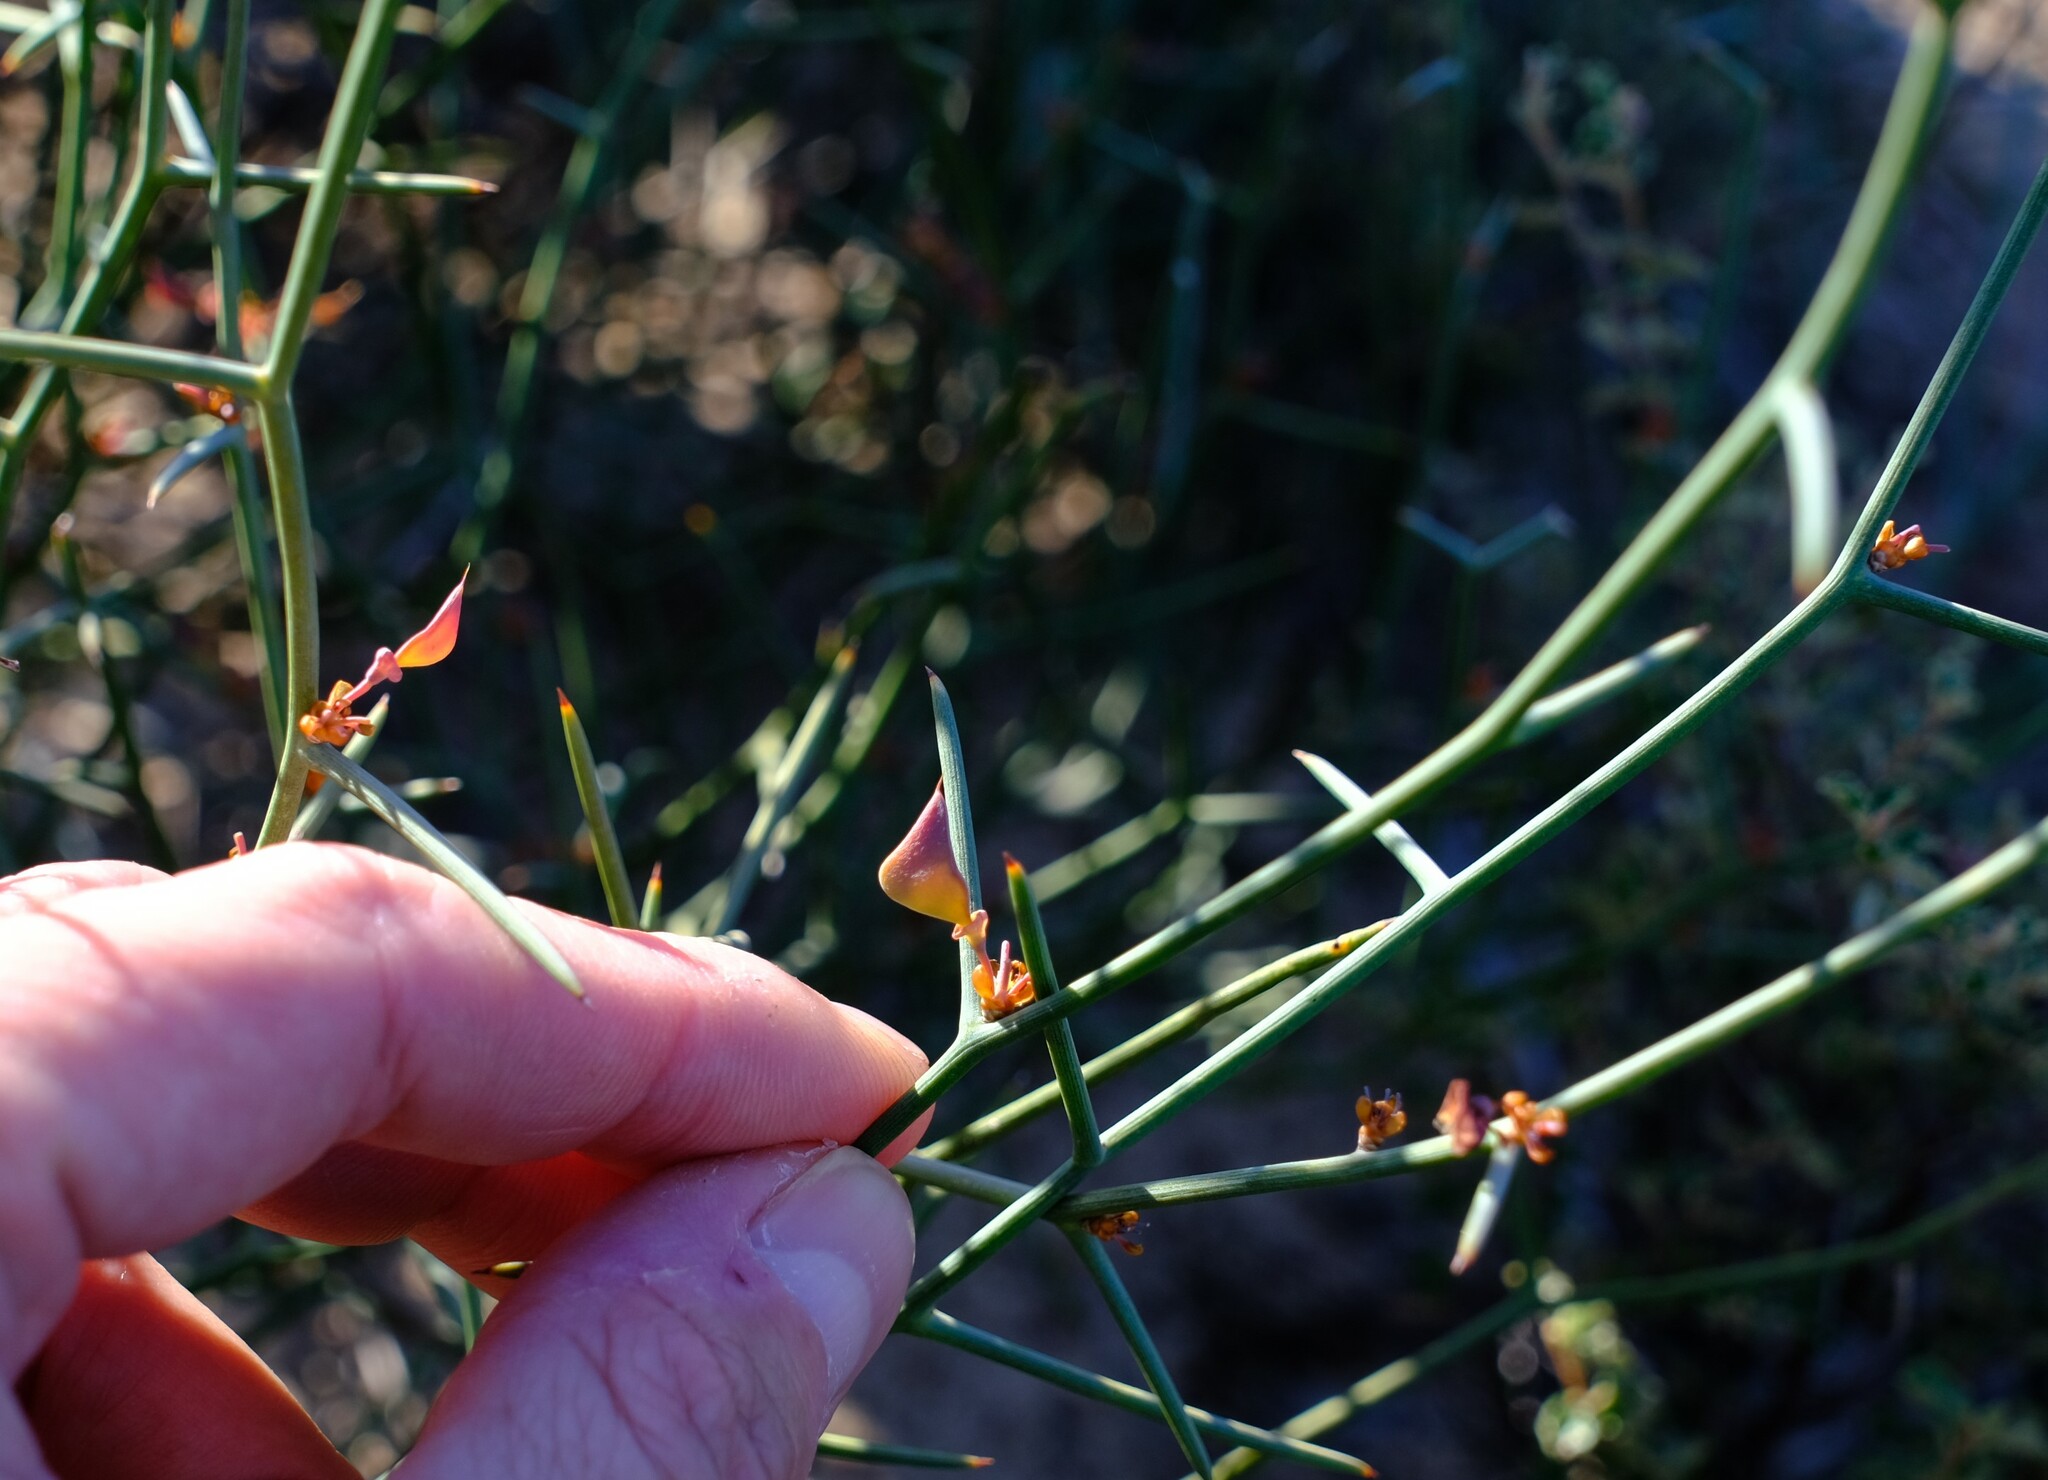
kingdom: Plantae
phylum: Tracheophyta
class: Magnoliopsida
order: Fabales
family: Fabaceae
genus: Daviesia
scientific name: Daviesia hakeoides
